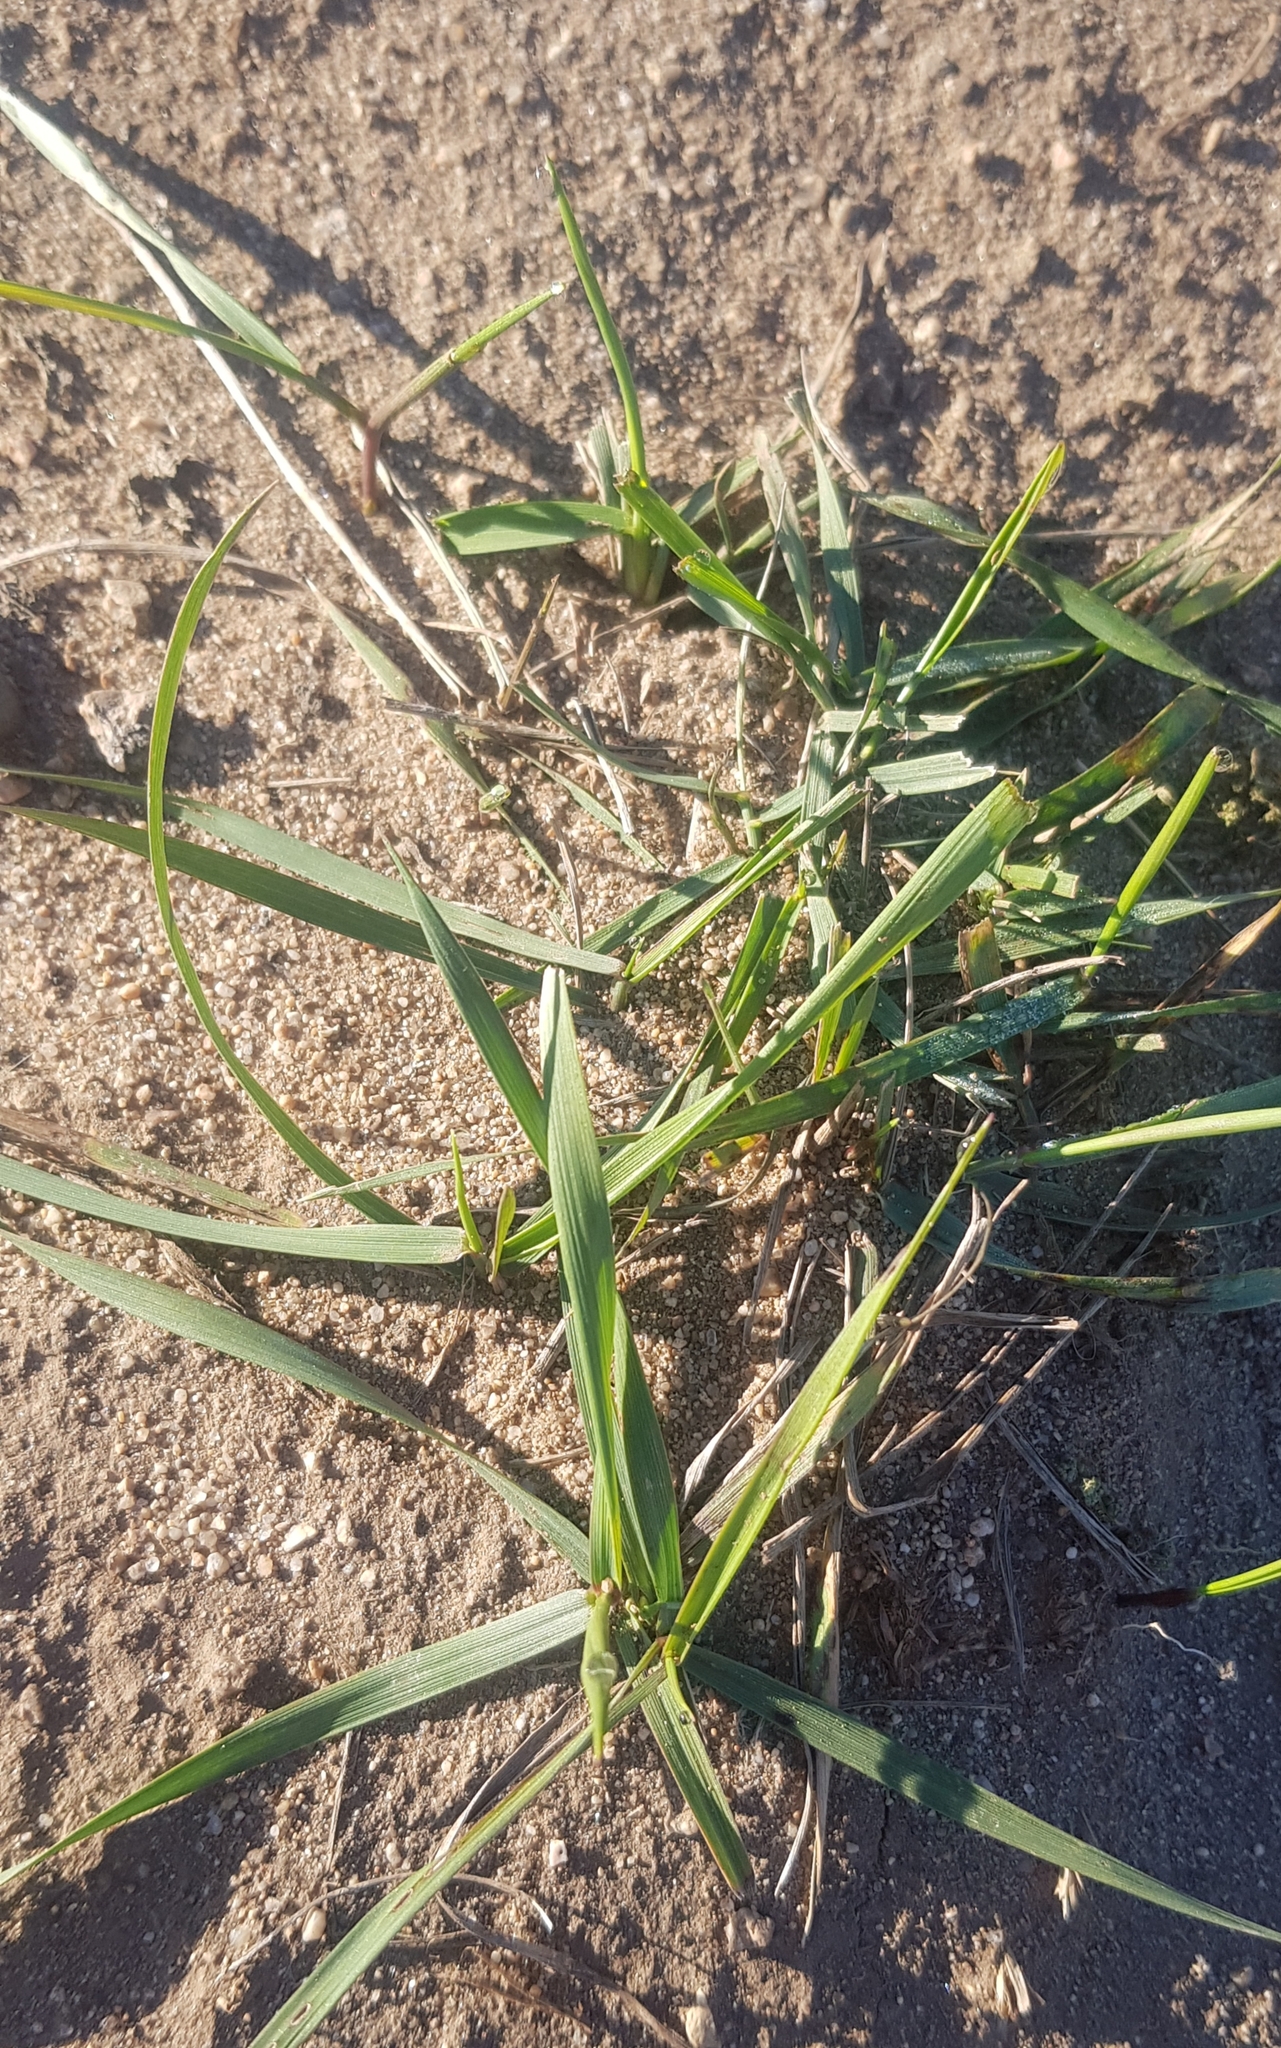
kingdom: Plantae
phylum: Tracheophyta
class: Liliopsida
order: Poales
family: Poaceae
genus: Elymus
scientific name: Elymus repens
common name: Quackgrass
